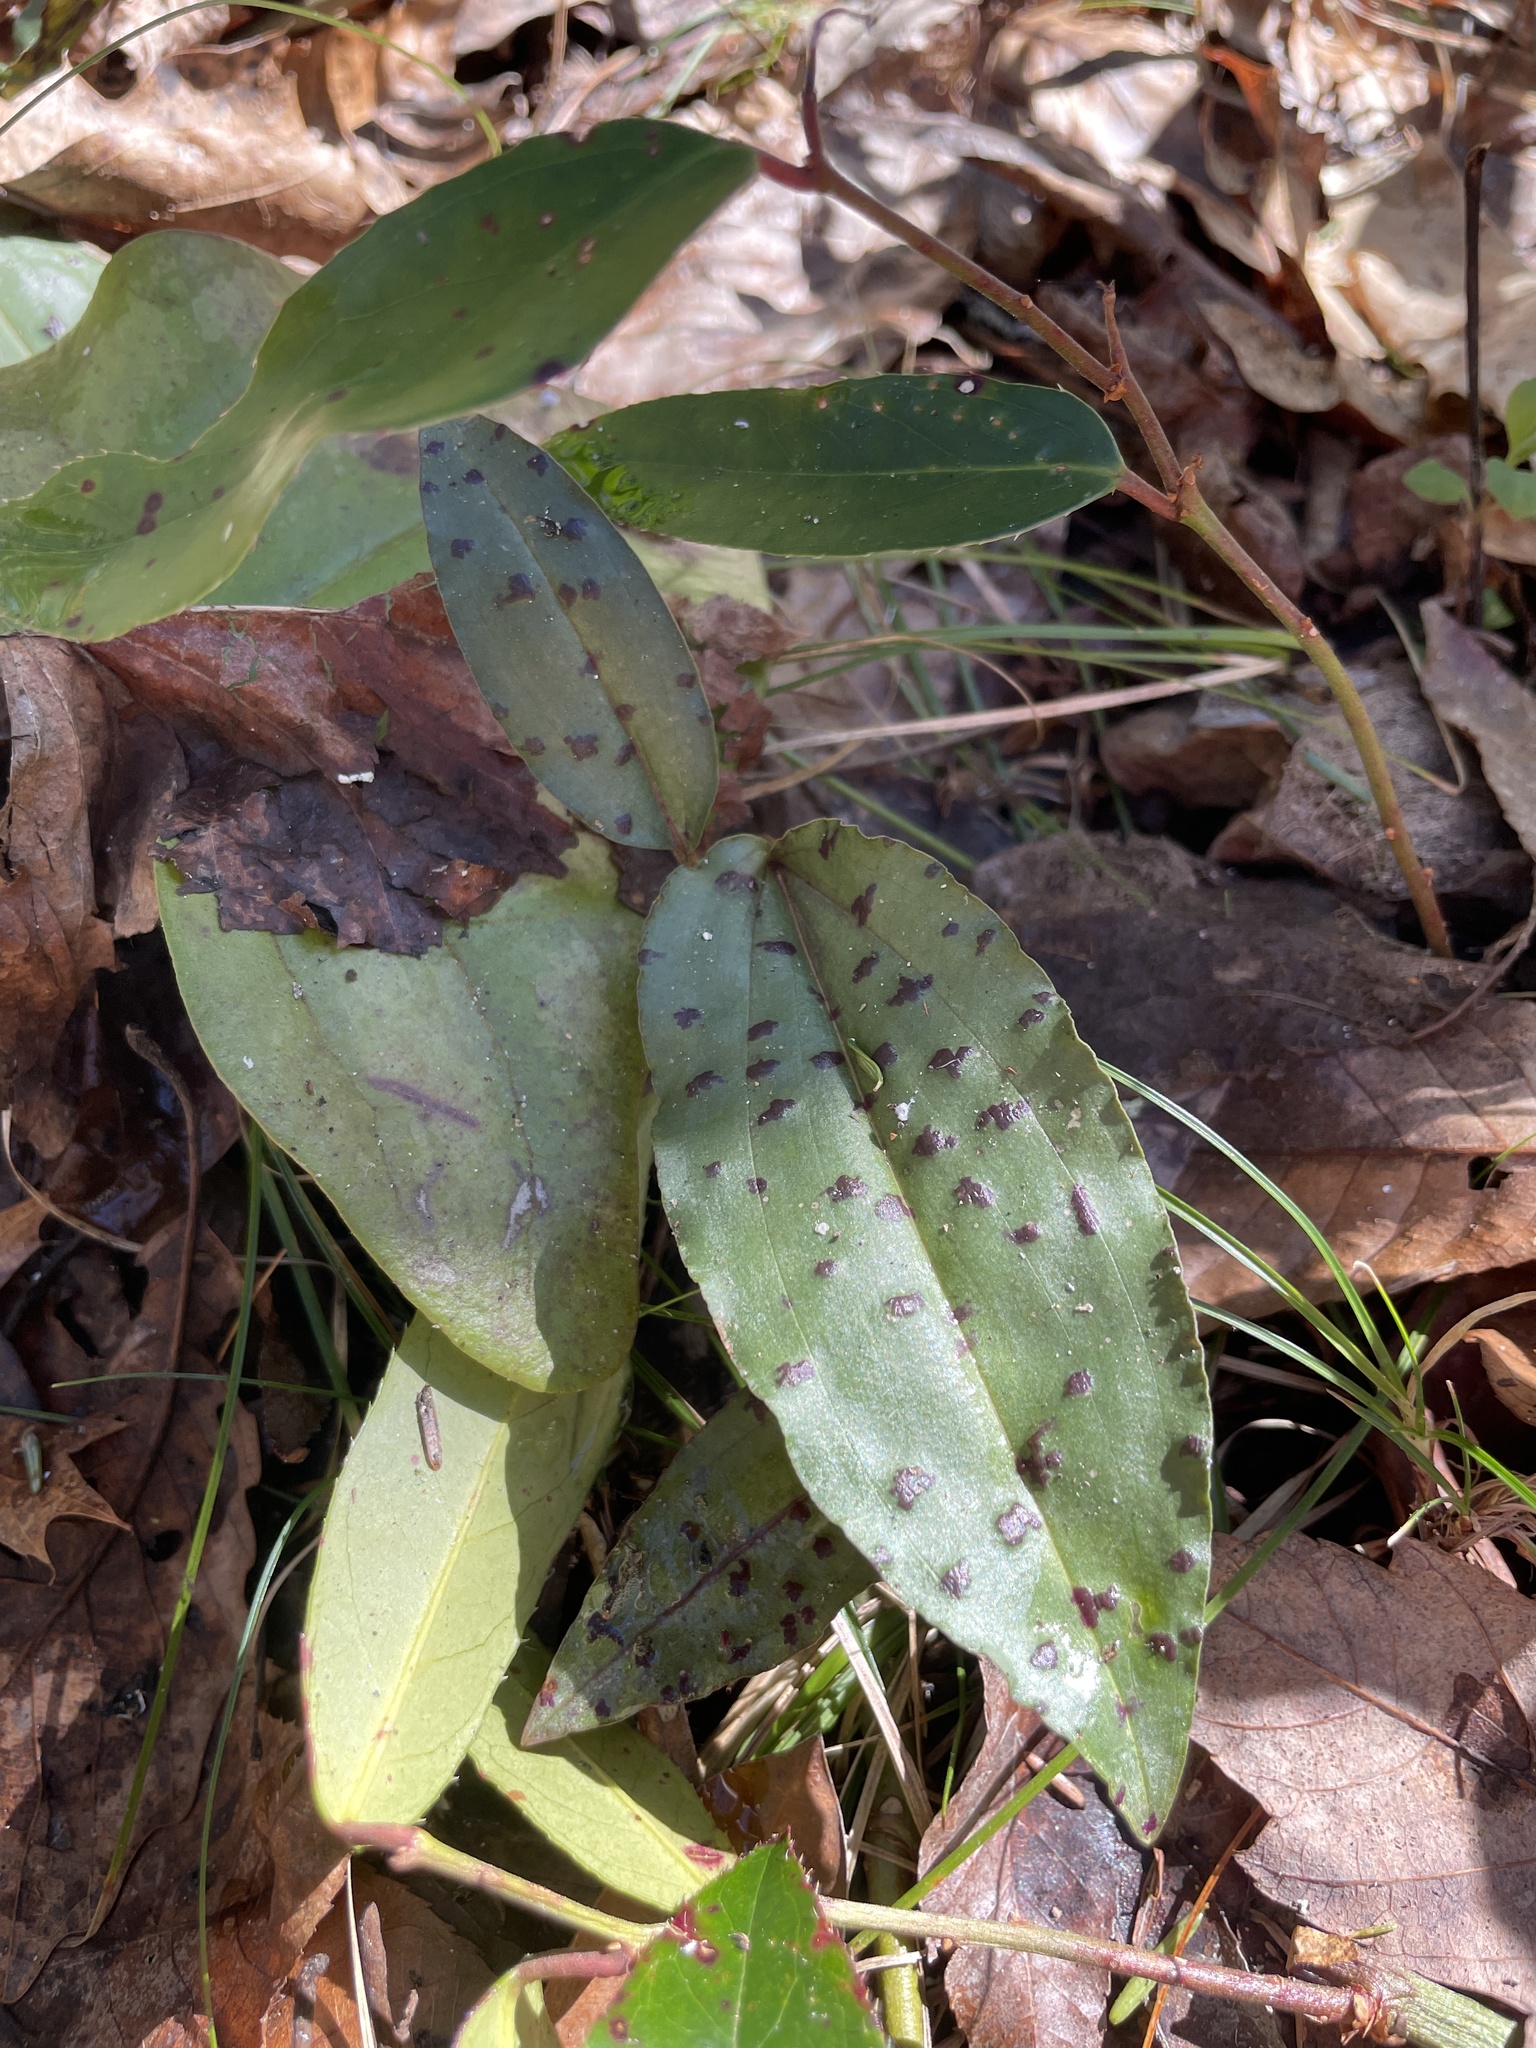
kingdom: Plantae
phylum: Tracheophyta
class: Liliopsida
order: Asparagales
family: Orchidaceae
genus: Tipularia
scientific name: Tipularia discolor
